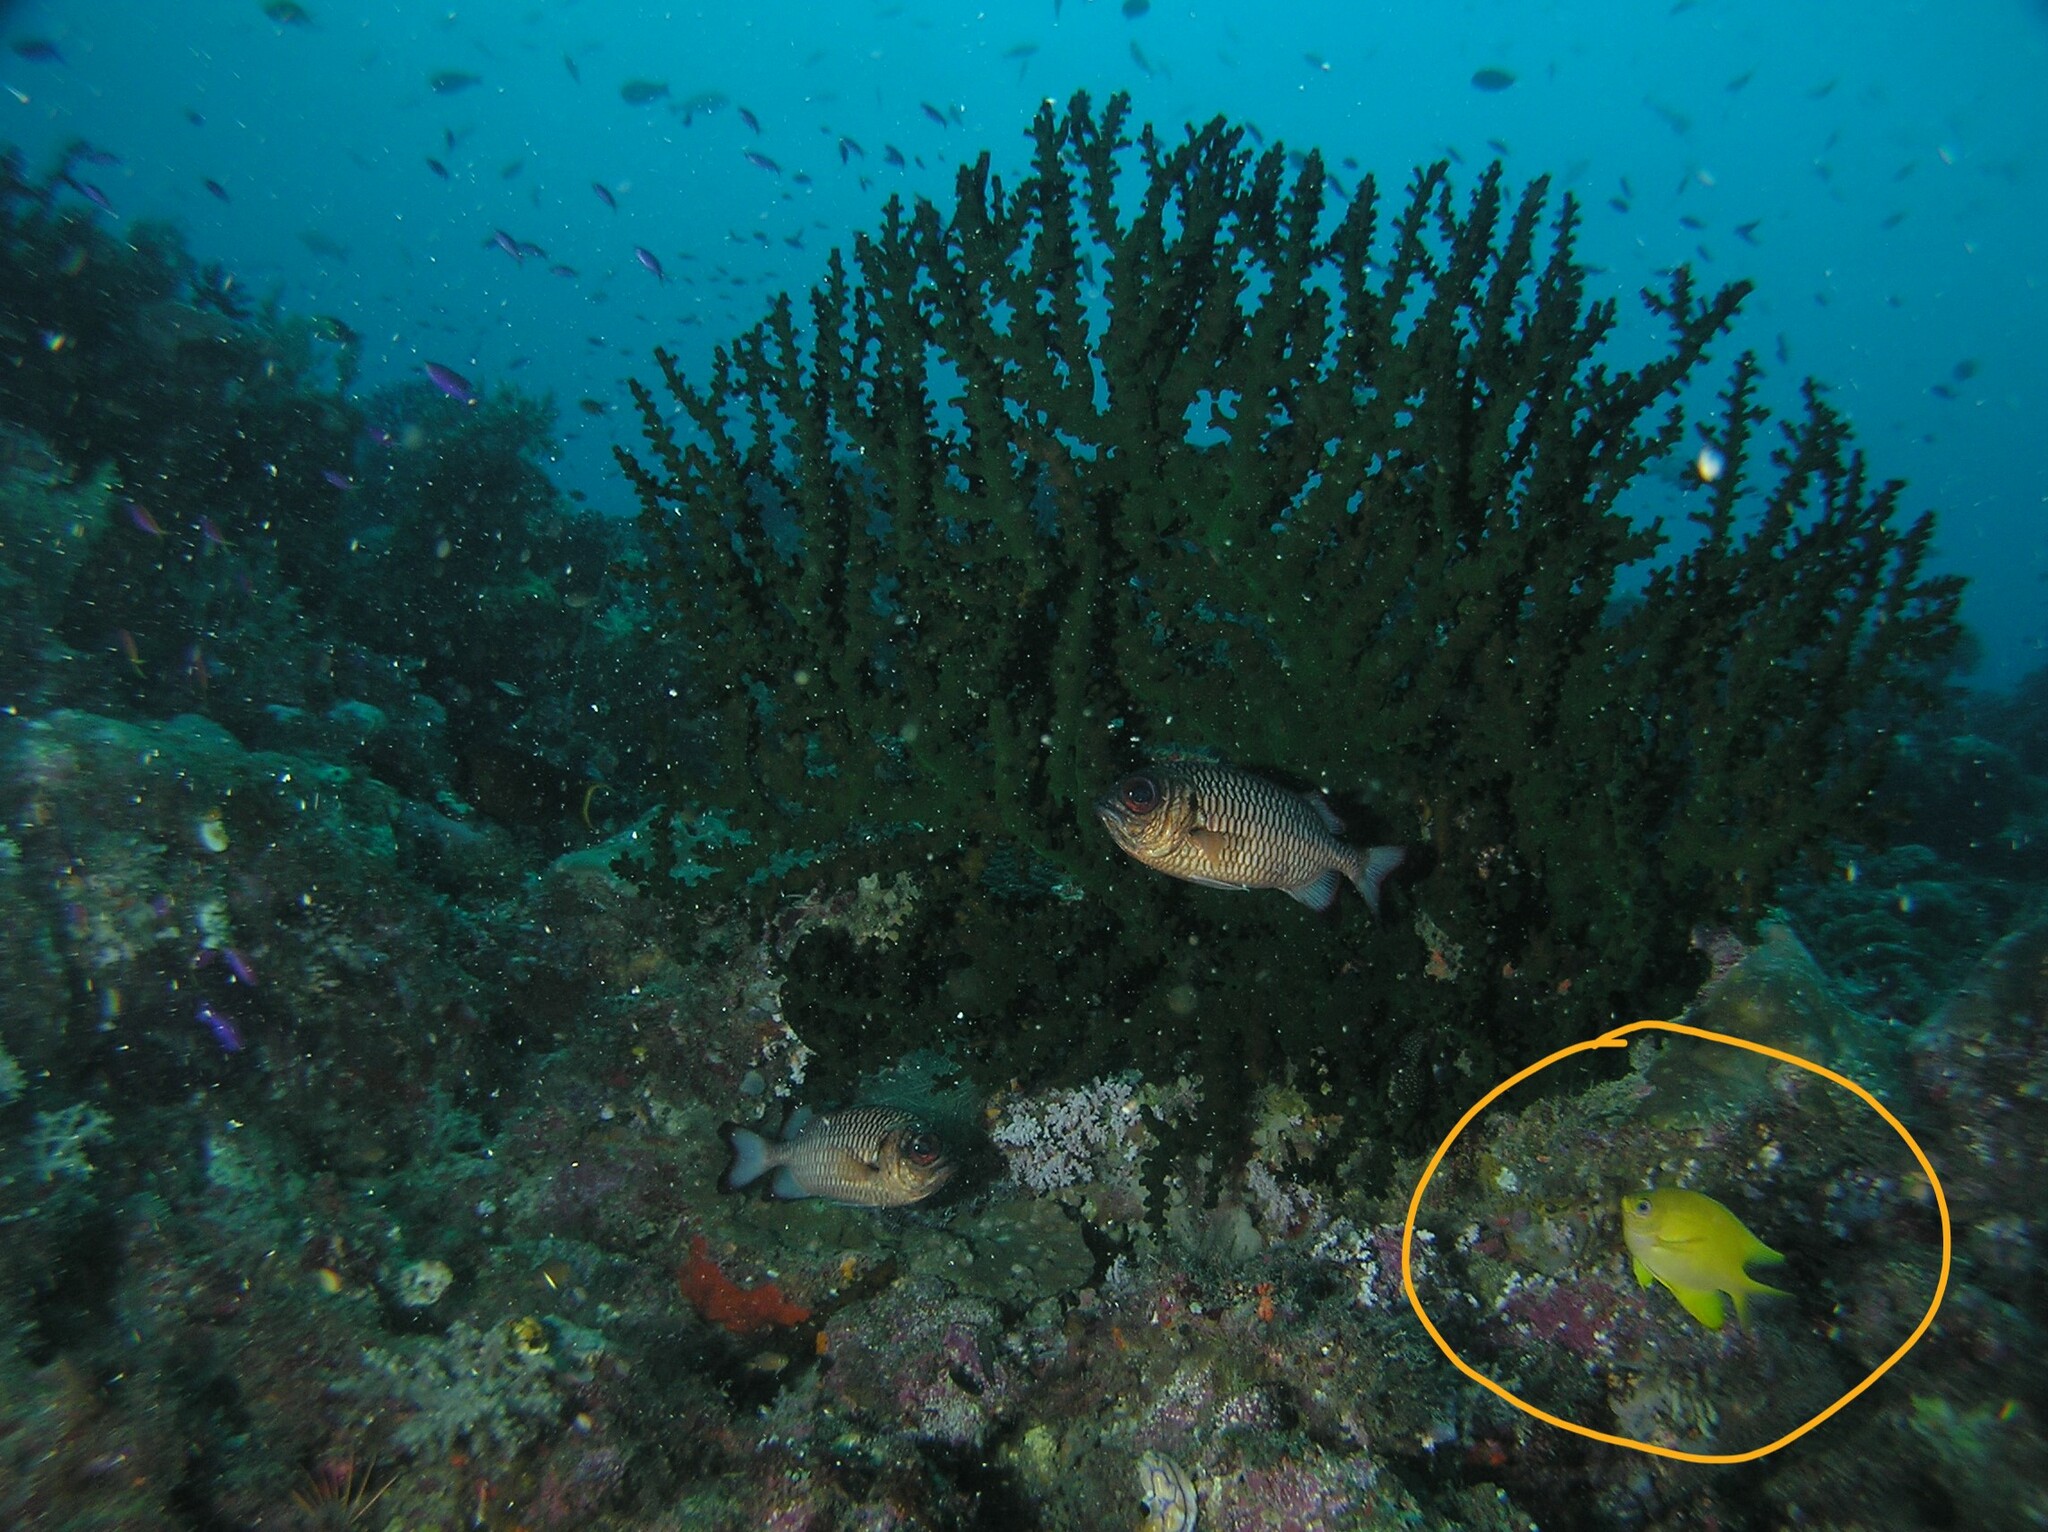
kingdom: Animalia
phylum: Chordata
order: Perciformes
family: Pomacentridae
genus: Amblyglyphidodon
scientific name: Amblyglyphidodon aureus
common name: Golden damsel
